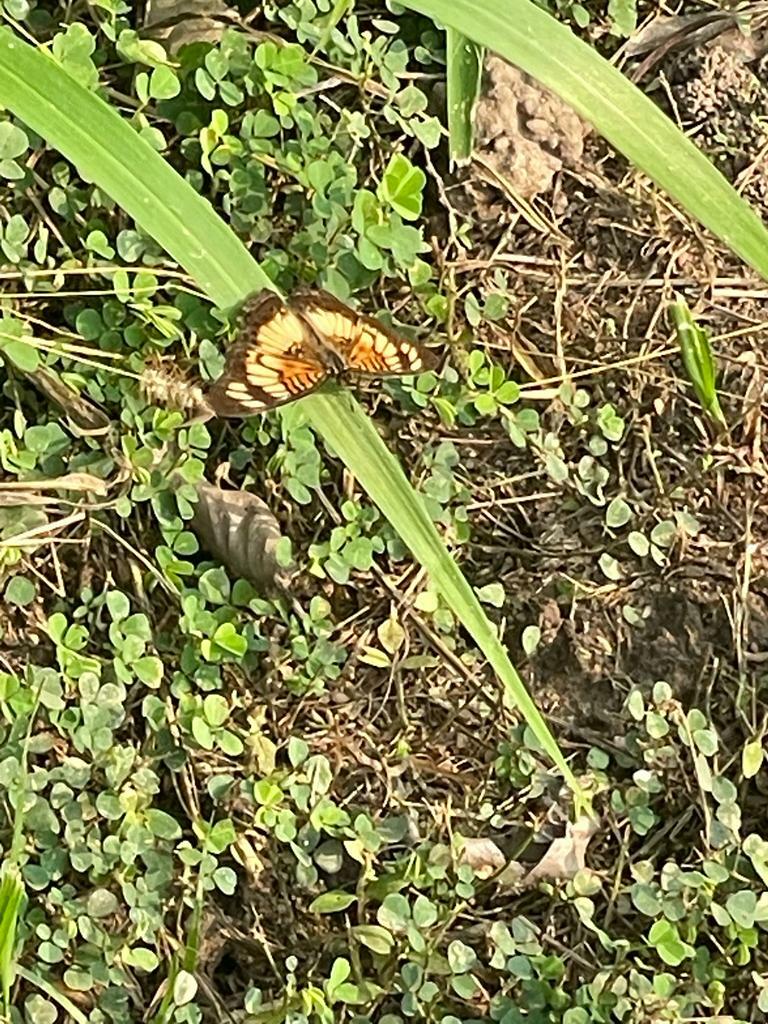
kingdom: Animalia
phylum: Arthropoda
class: Insecta
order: Lepidoptera
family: Nymphalidae
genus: Junonia
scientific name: Junonia sophia
